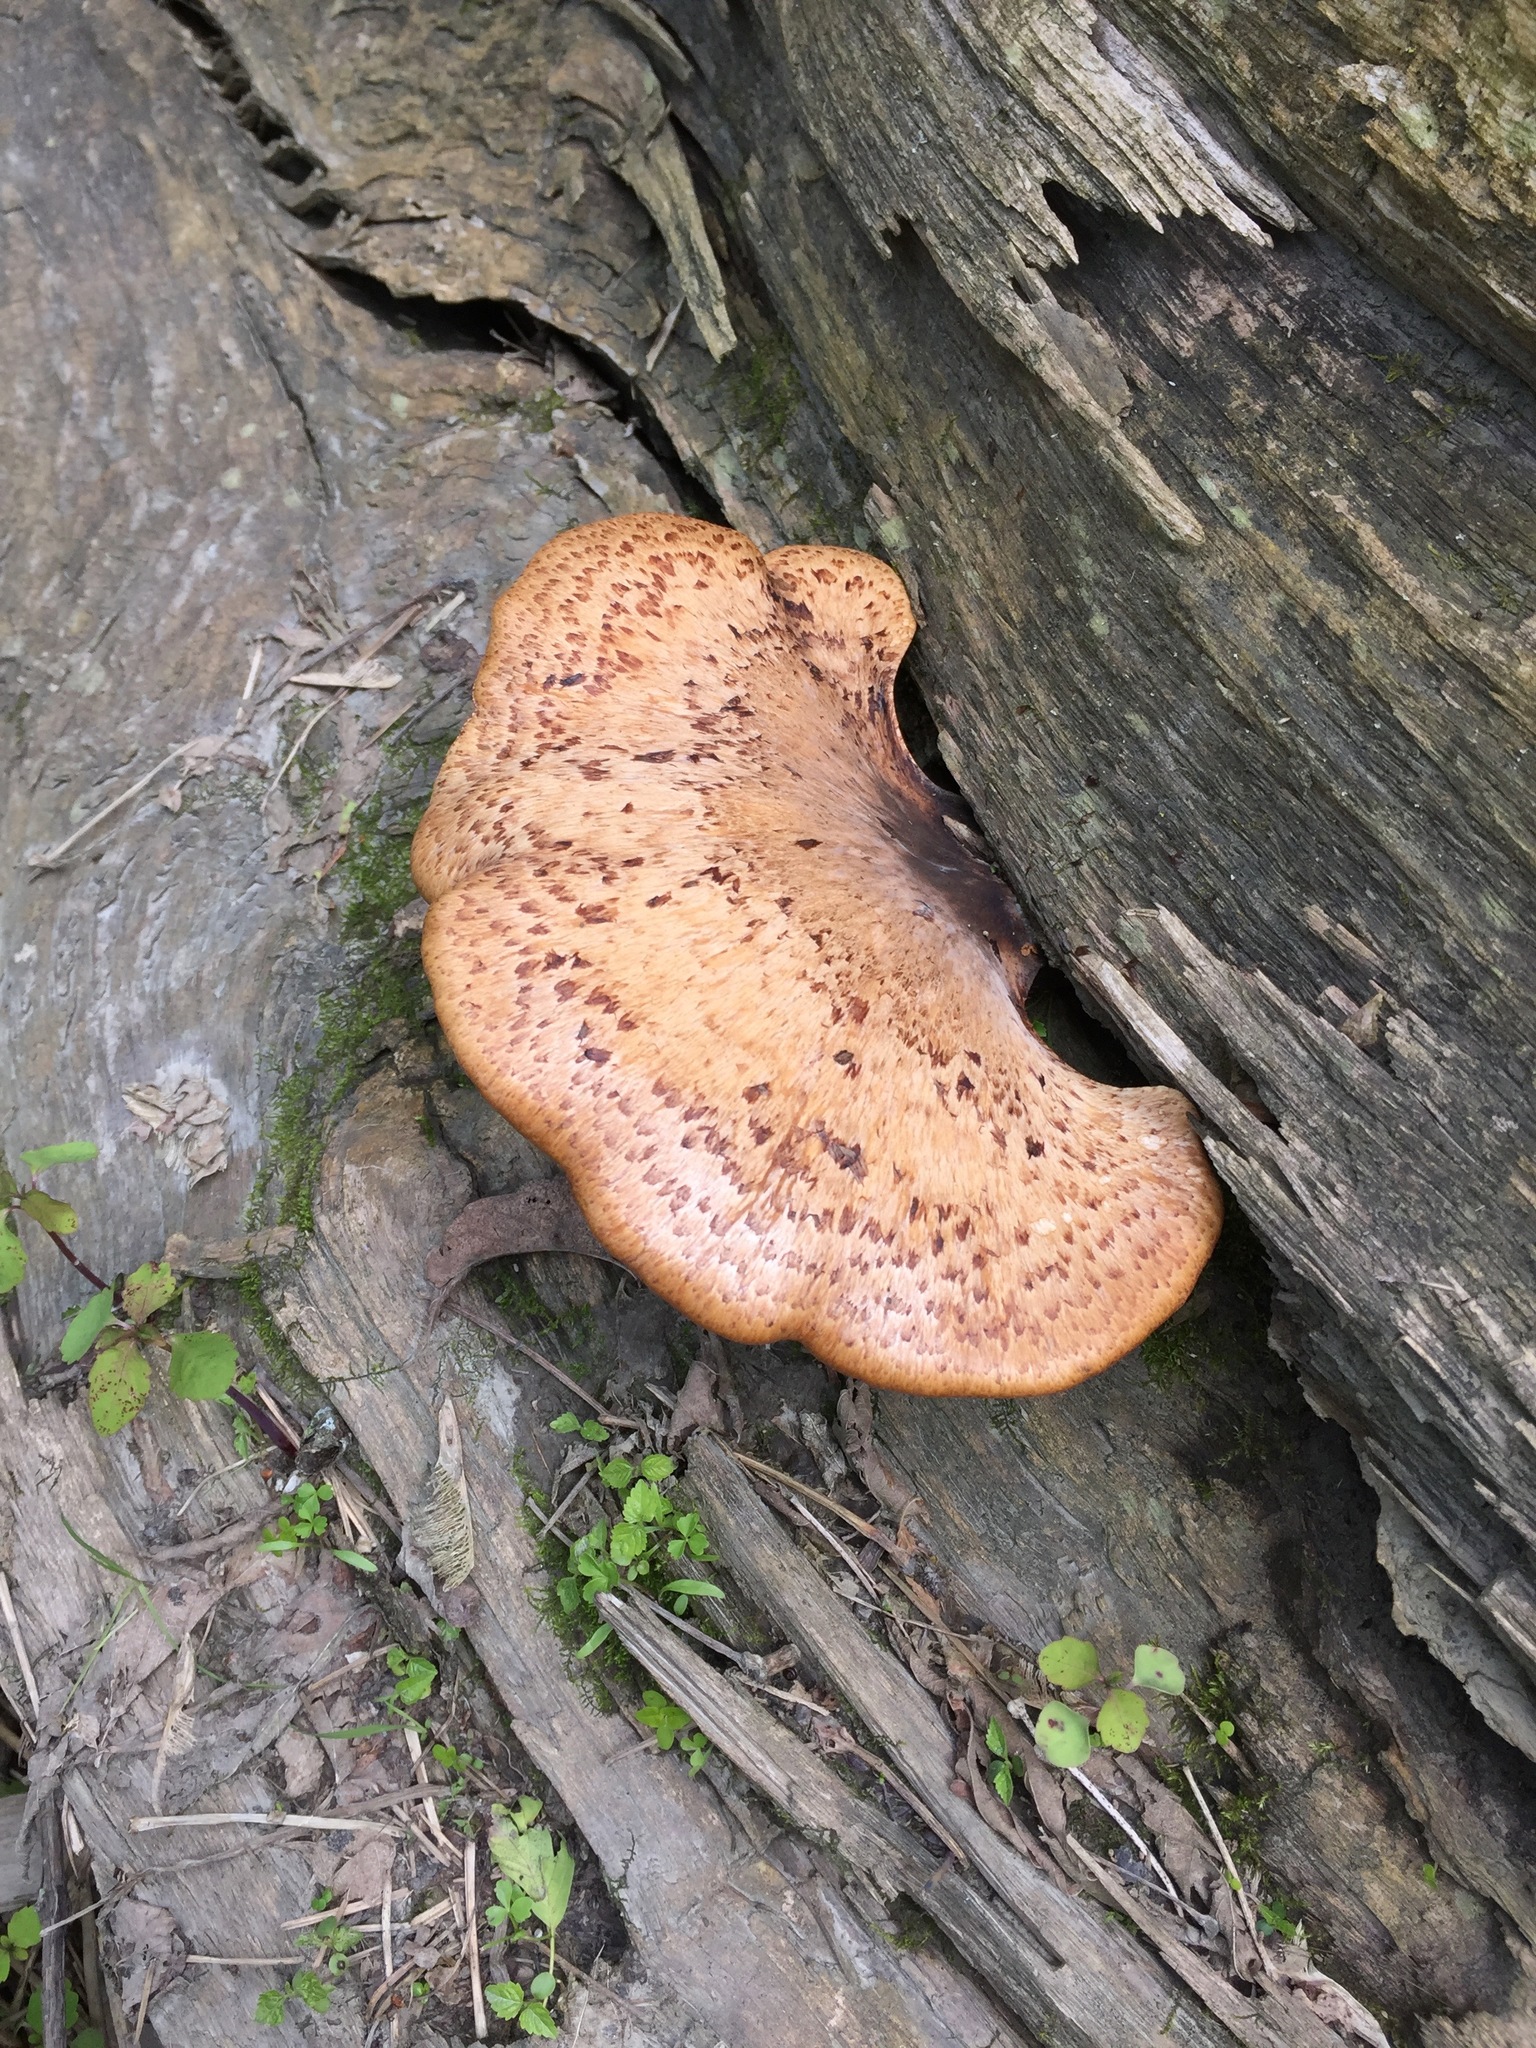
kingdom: Fungi
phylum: Basidiomycota
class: Agaricomycetes
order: Polyporales
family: Polyporaceae
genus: Cerioporus
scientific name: Cerioporus squamosus
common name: Dryad's saddle
